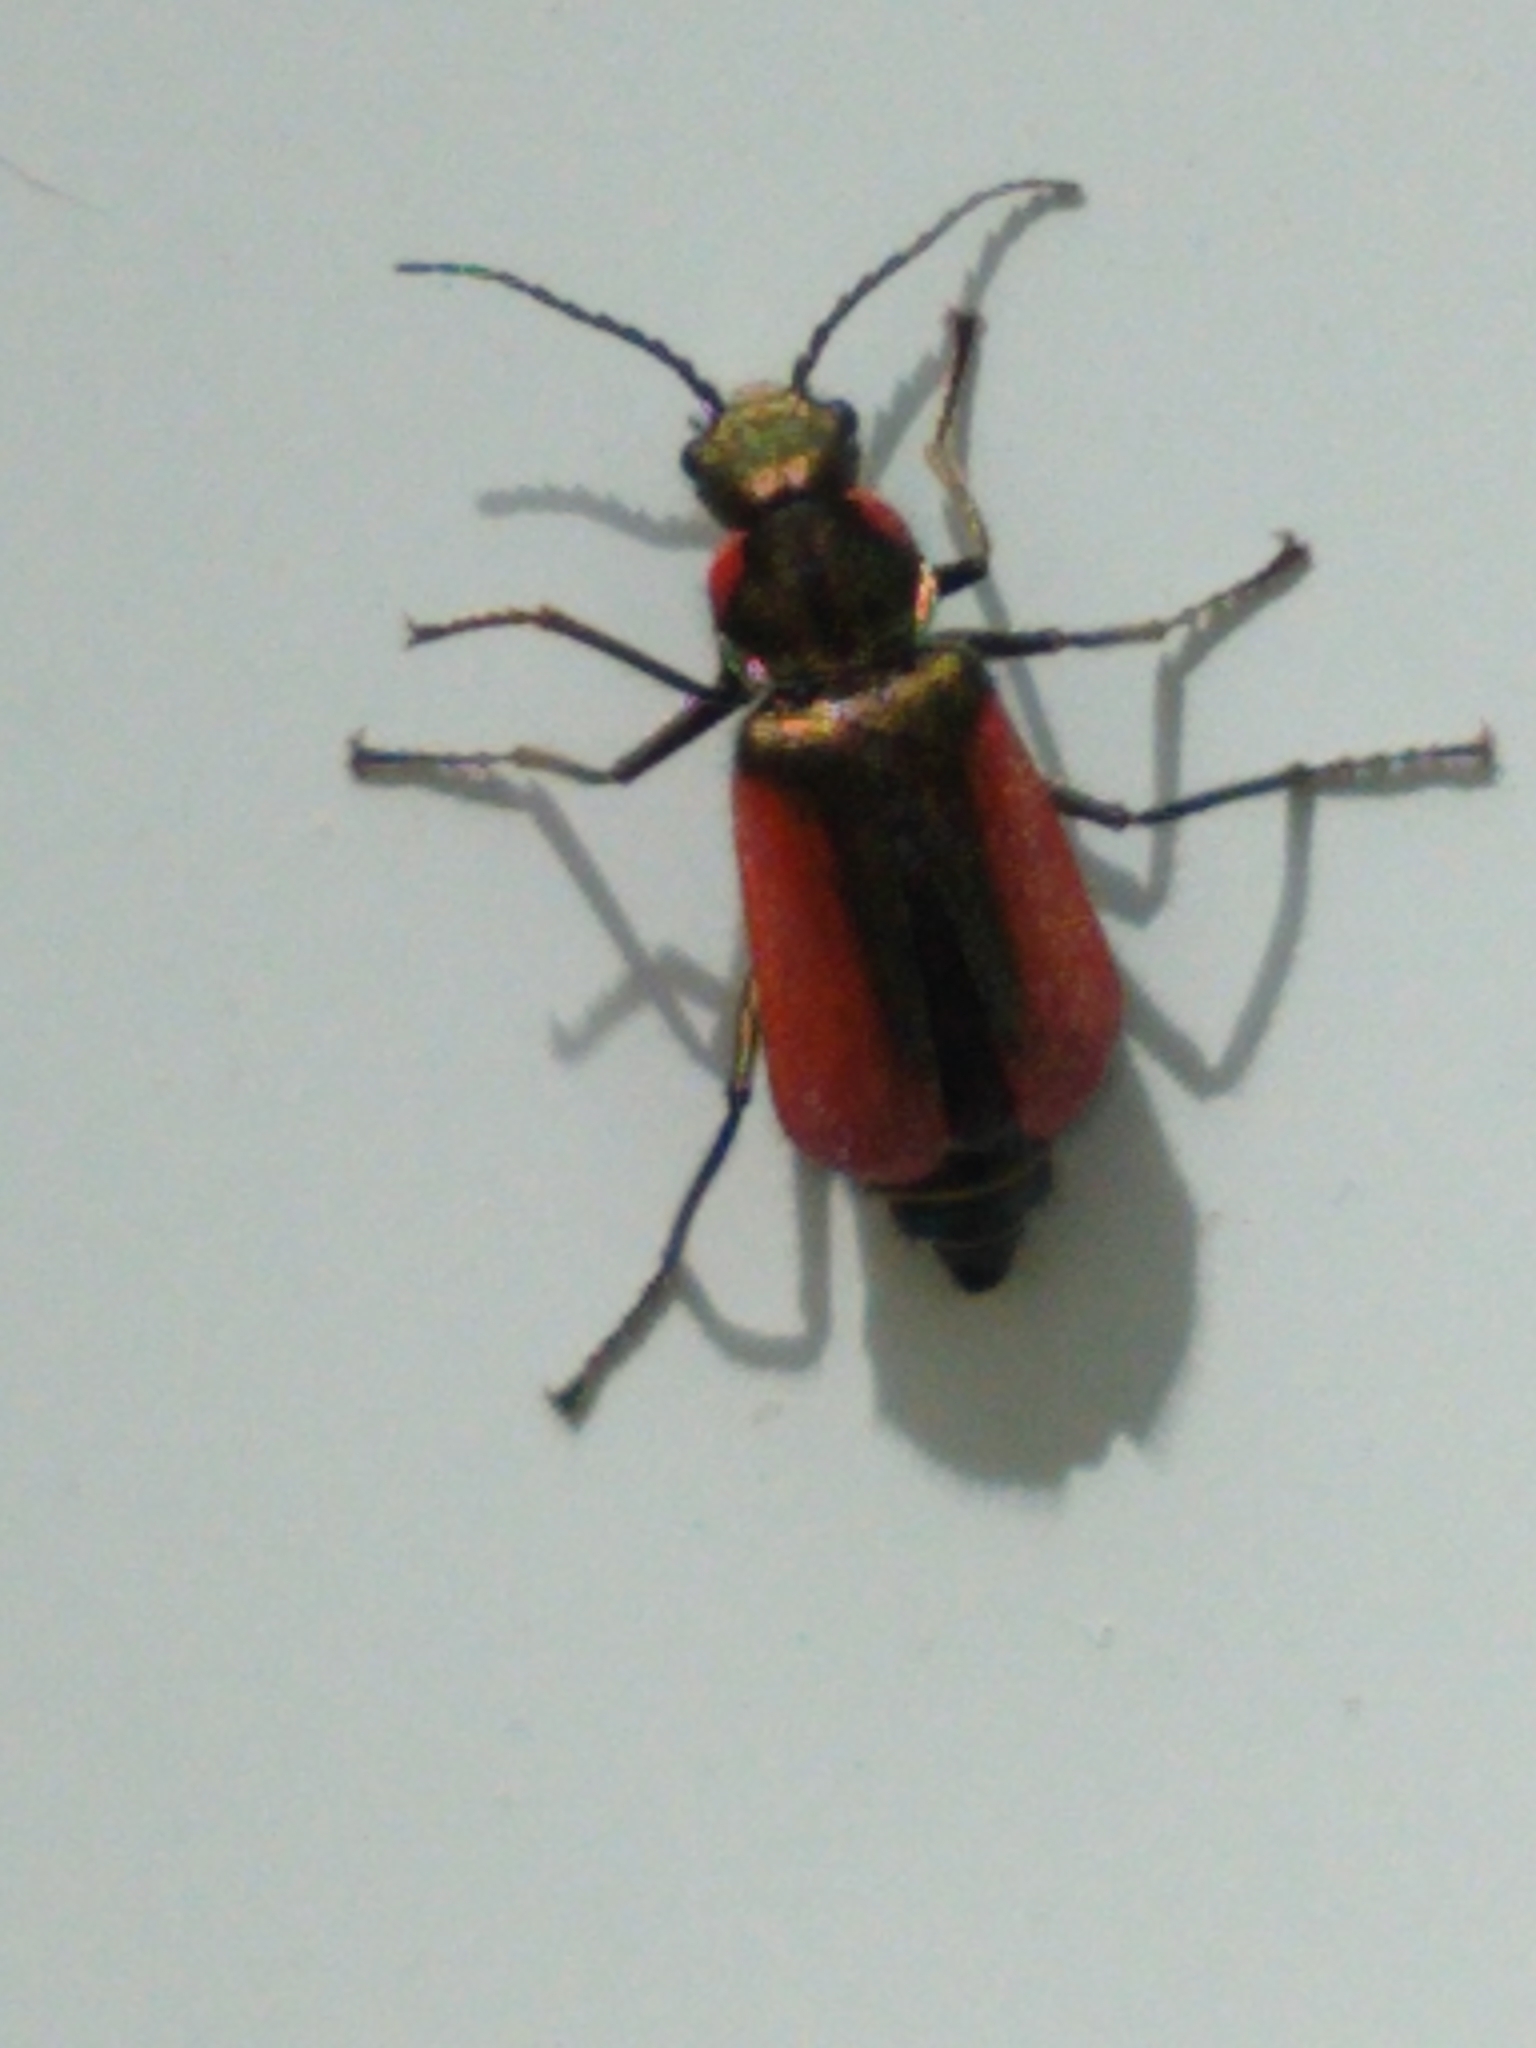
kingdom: Animalia
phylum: Arthropoda
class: Insecta
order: Coleoptera
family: Melyridae
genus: Malachius
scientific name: Malachius aeneus
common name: Scarlet malachite beetle
